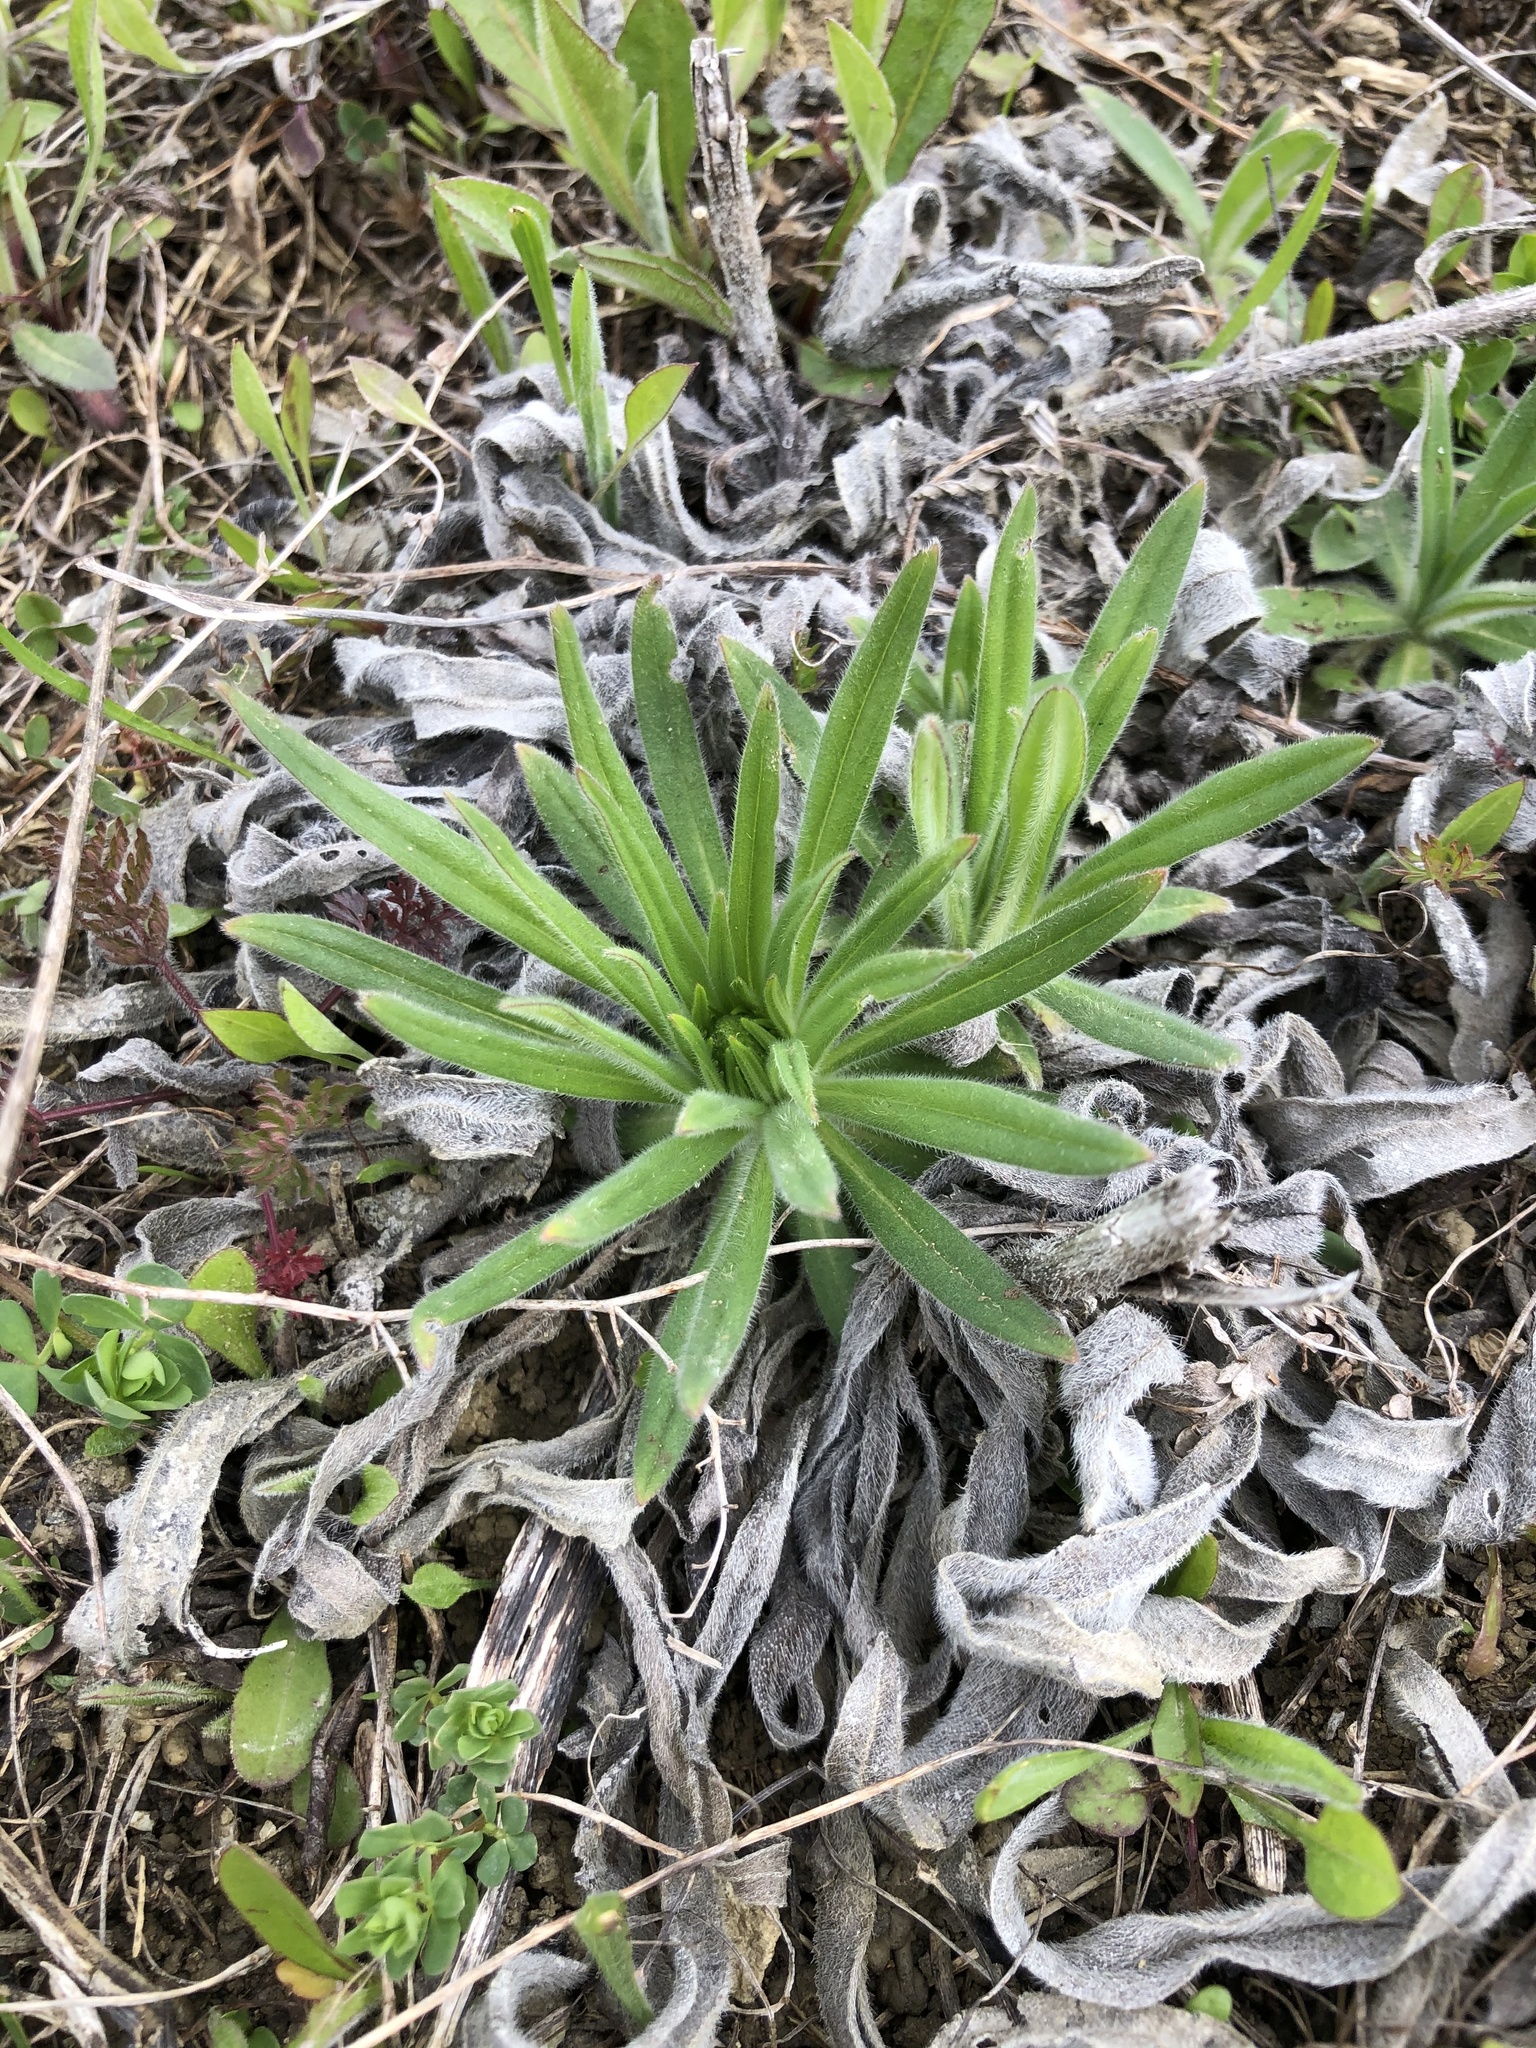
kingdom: Plantae
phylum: Tracheophyta
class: Magnoliopsida
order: Boraginales
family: Boraginaceae
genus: Pontechium
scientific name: Pontechium maculatum
